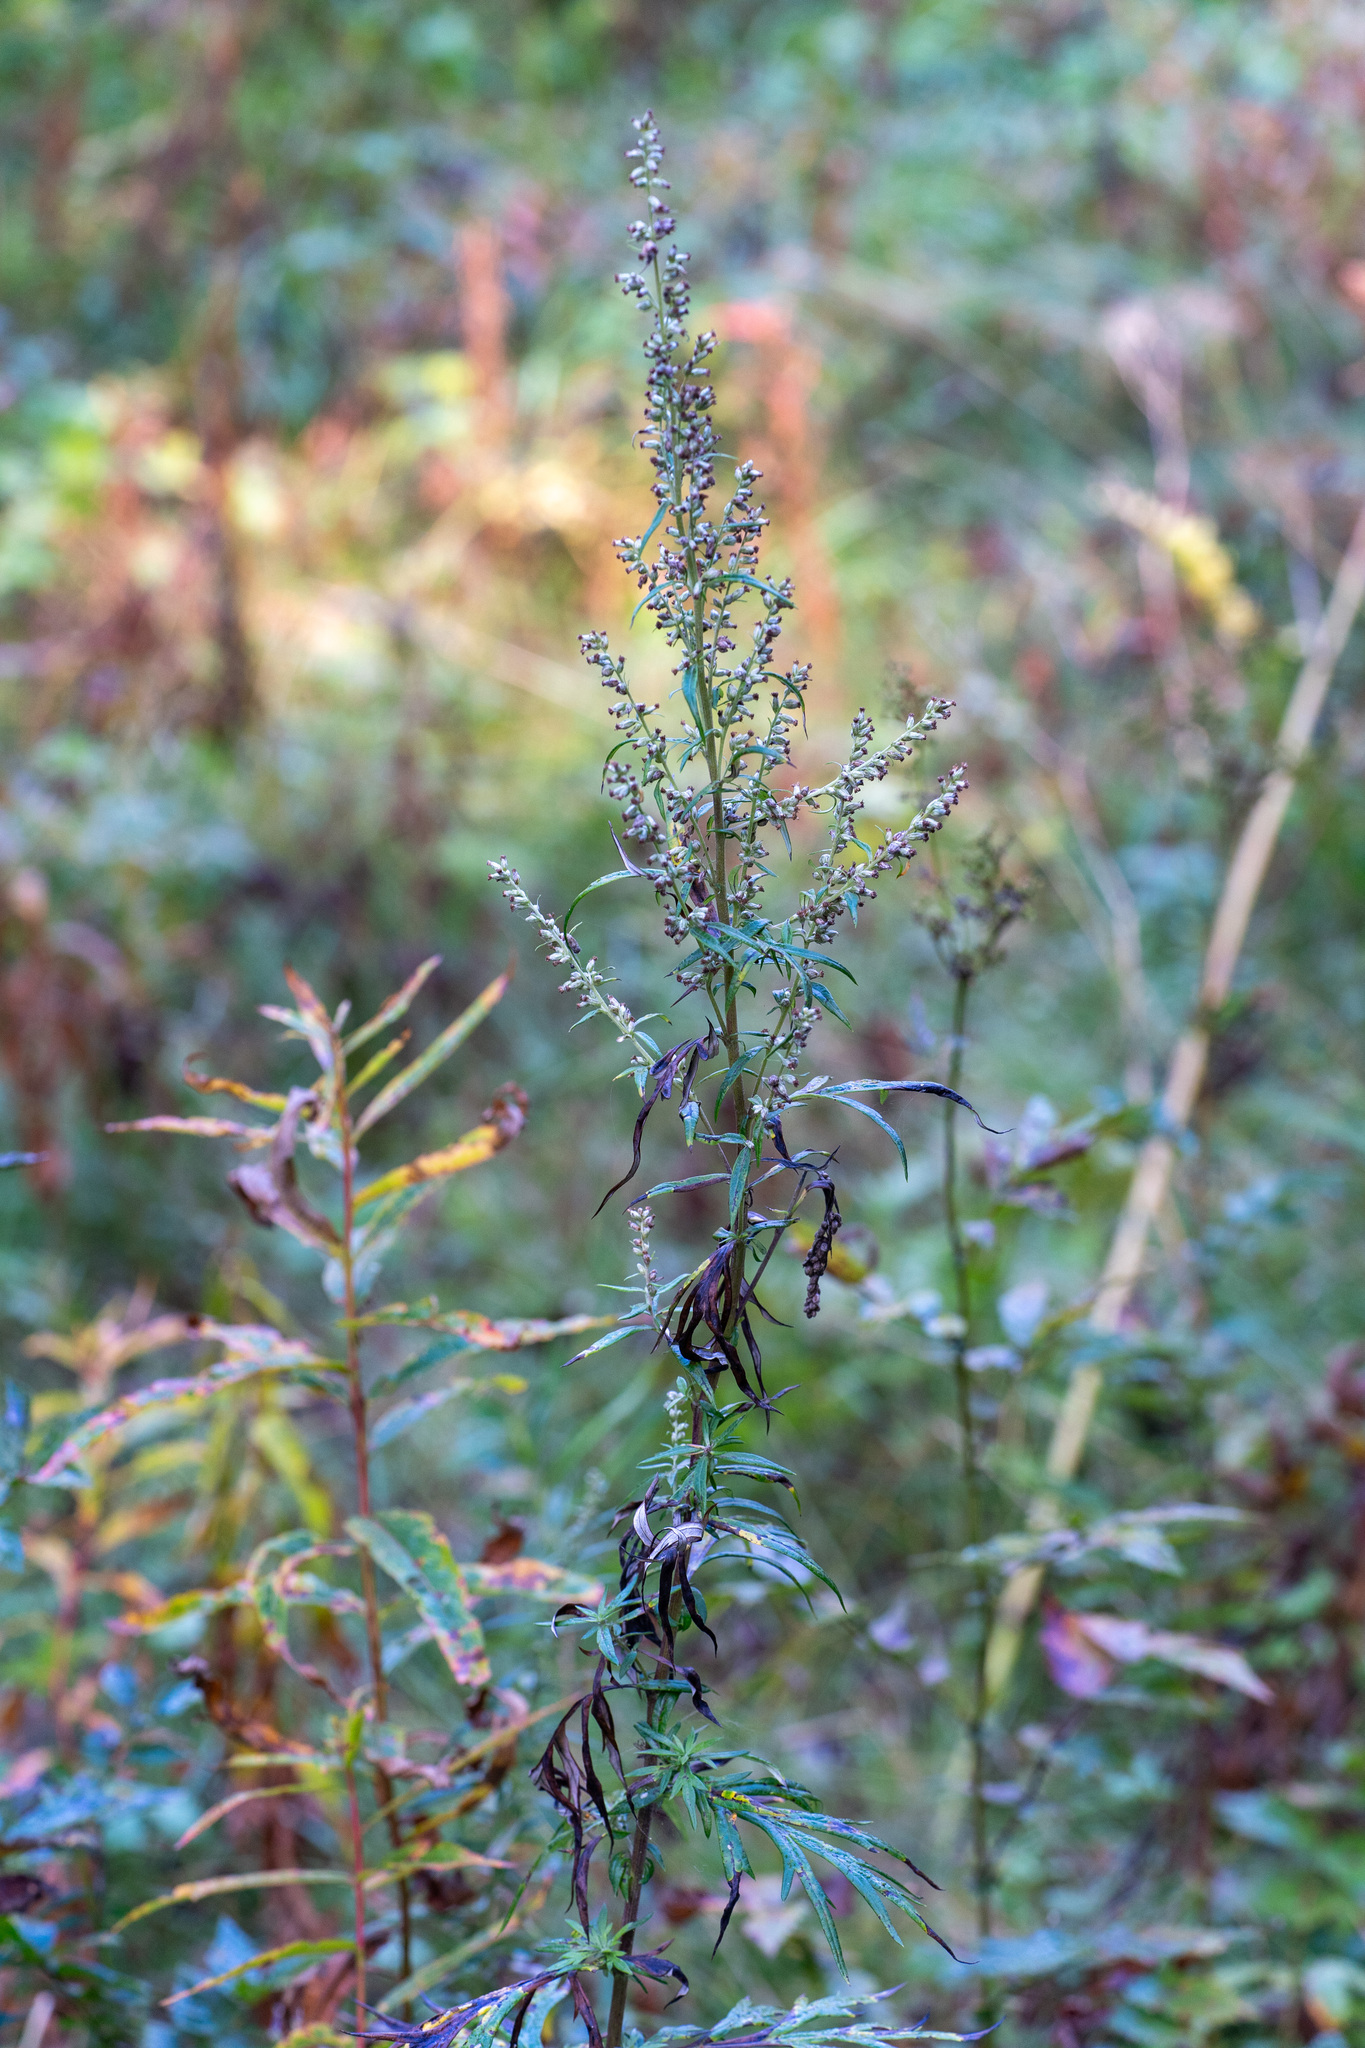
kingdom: Plantae
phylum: Tracheophyta
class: Magnoliopsida
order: Asterales
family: Asteraceae
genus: Artemisia
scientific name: Artemisia vulgaris
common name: Mugwort
